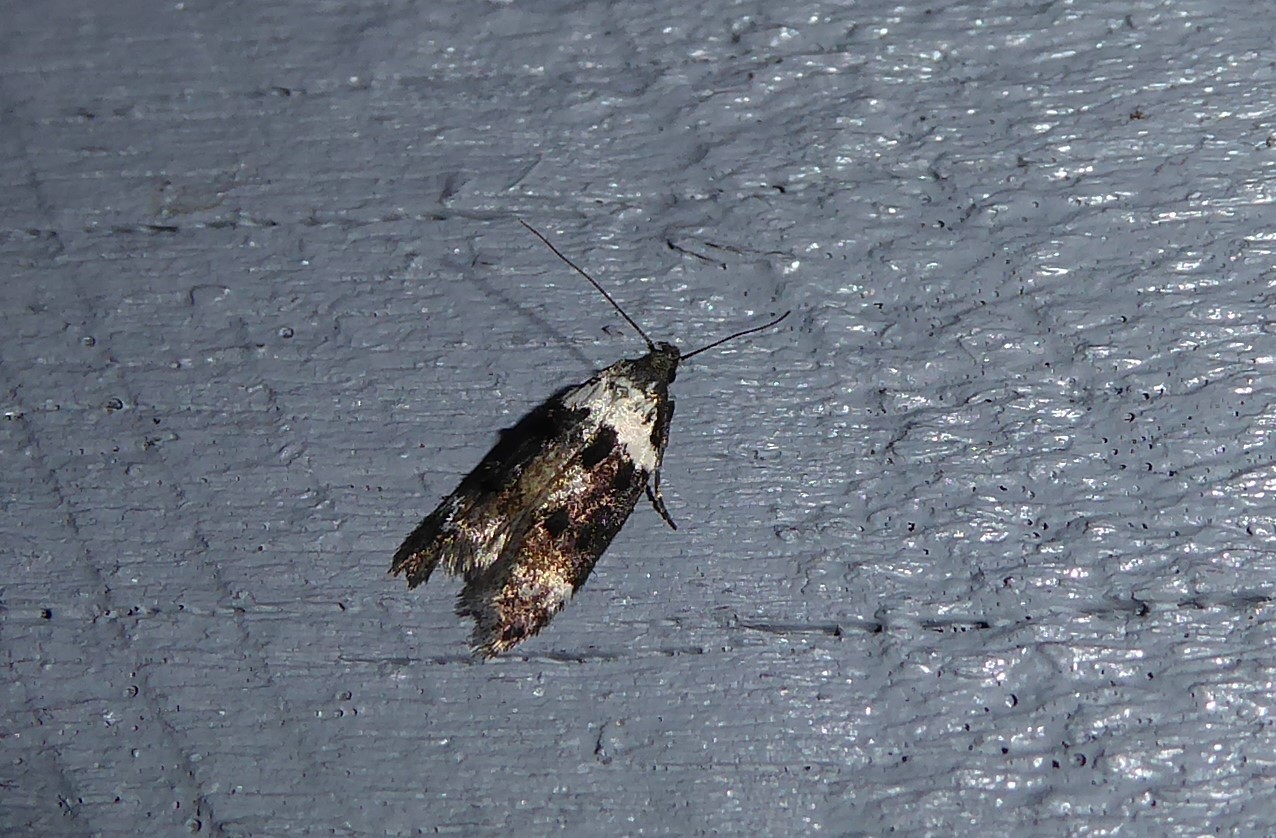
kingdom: Animalia
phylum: Arthropoda
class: Insecta
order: Lepidoptera
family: Oecophoridae
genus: Trachypepla
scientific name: Trachypepla euryleucota
